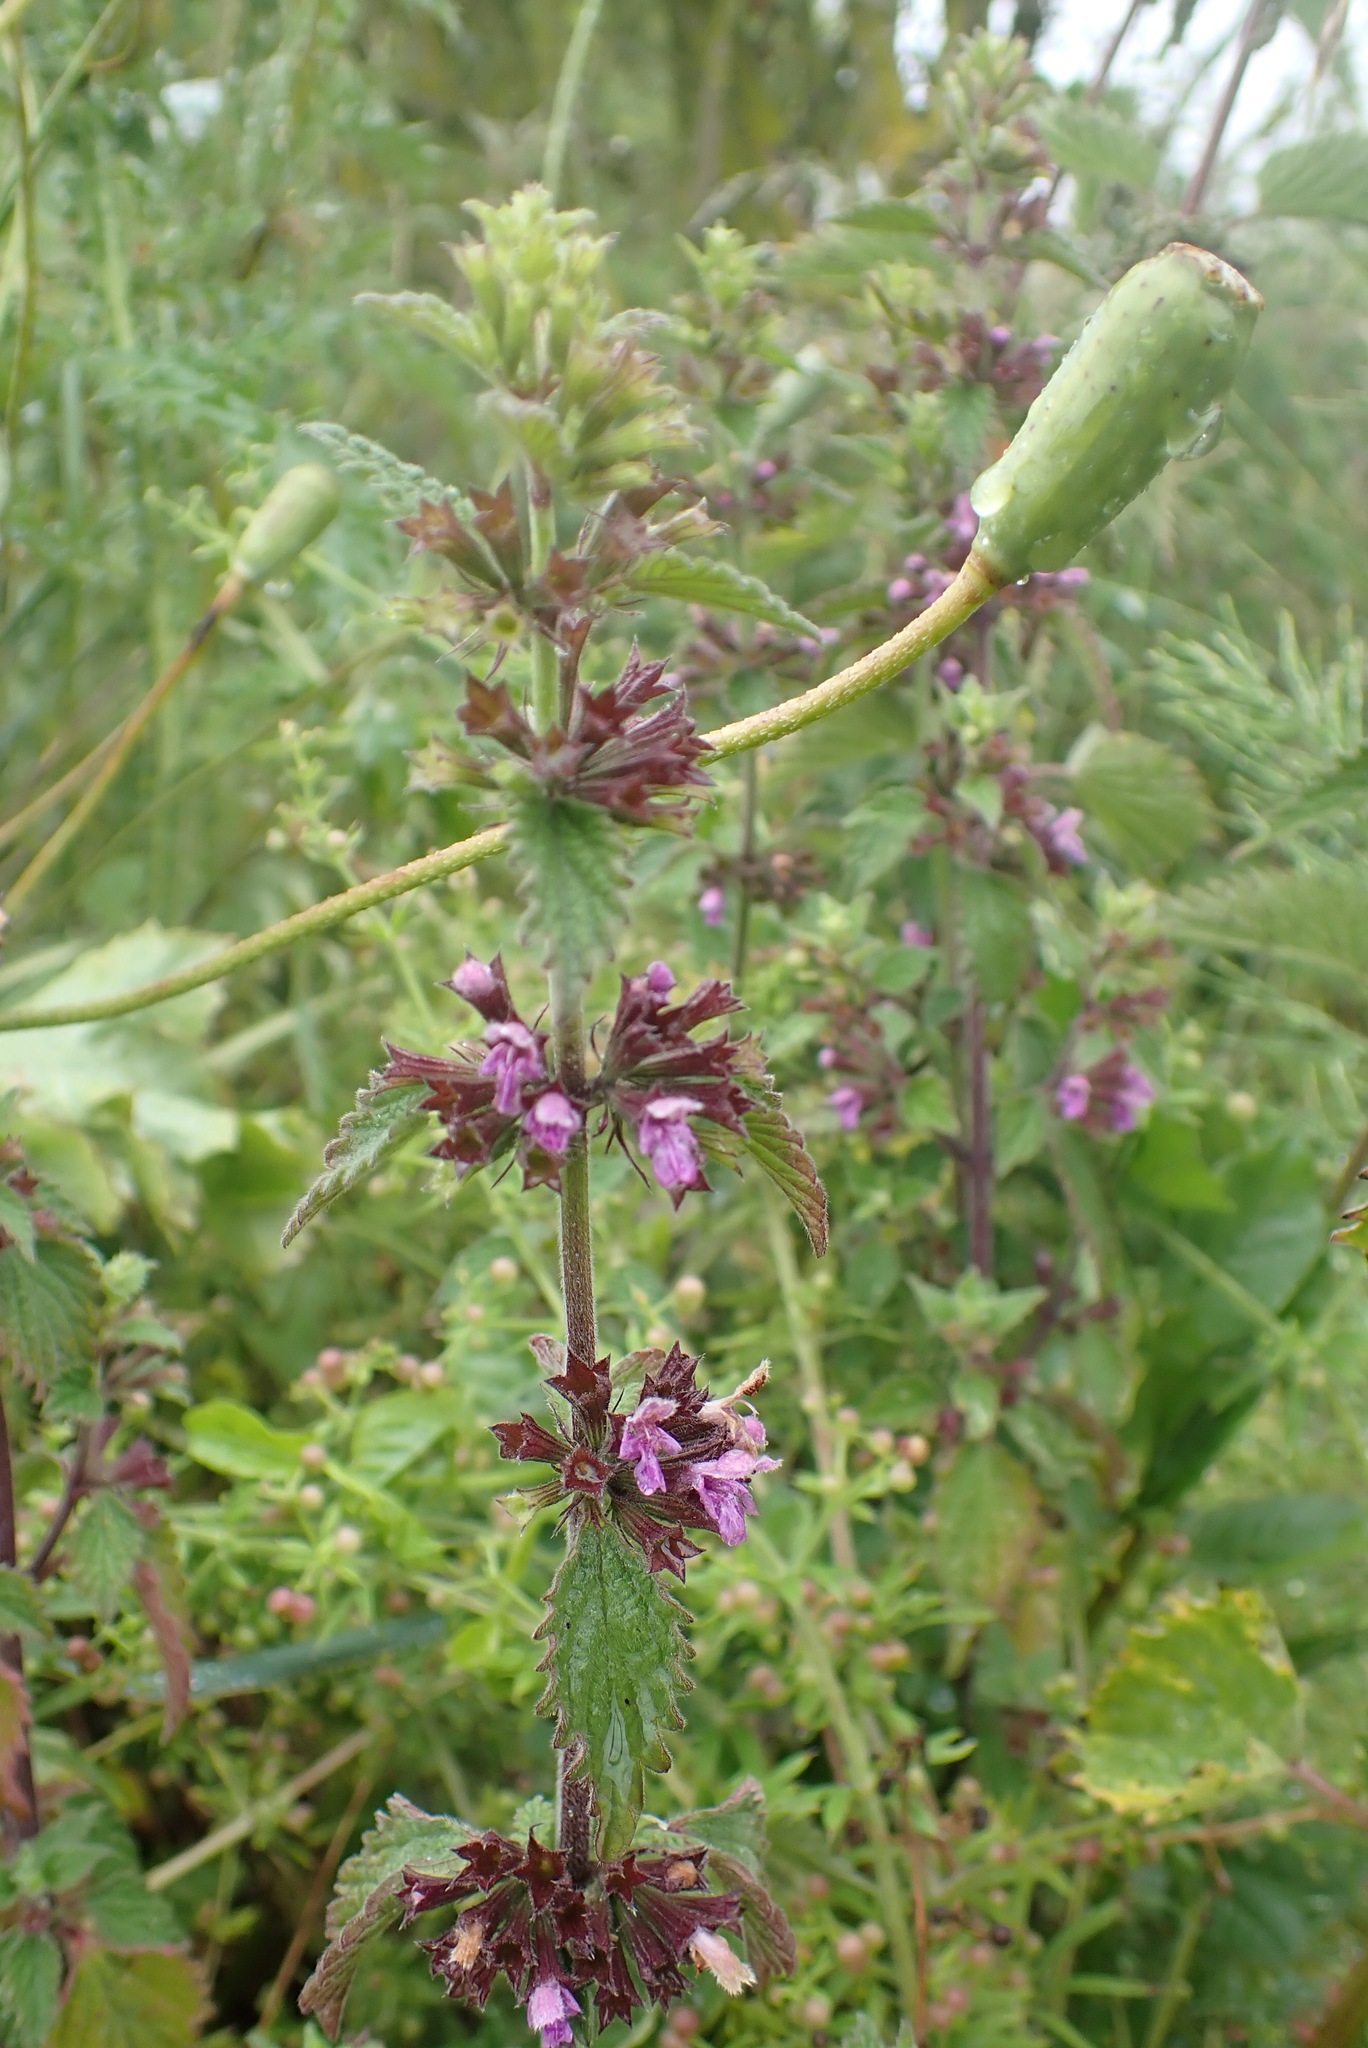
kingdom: Plantae
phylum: Tracheophyta
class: Magnoliopsida
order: Lamiales
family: Lamiaceae
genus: Ballota
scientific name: Ballota nigra
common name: Black horehound
